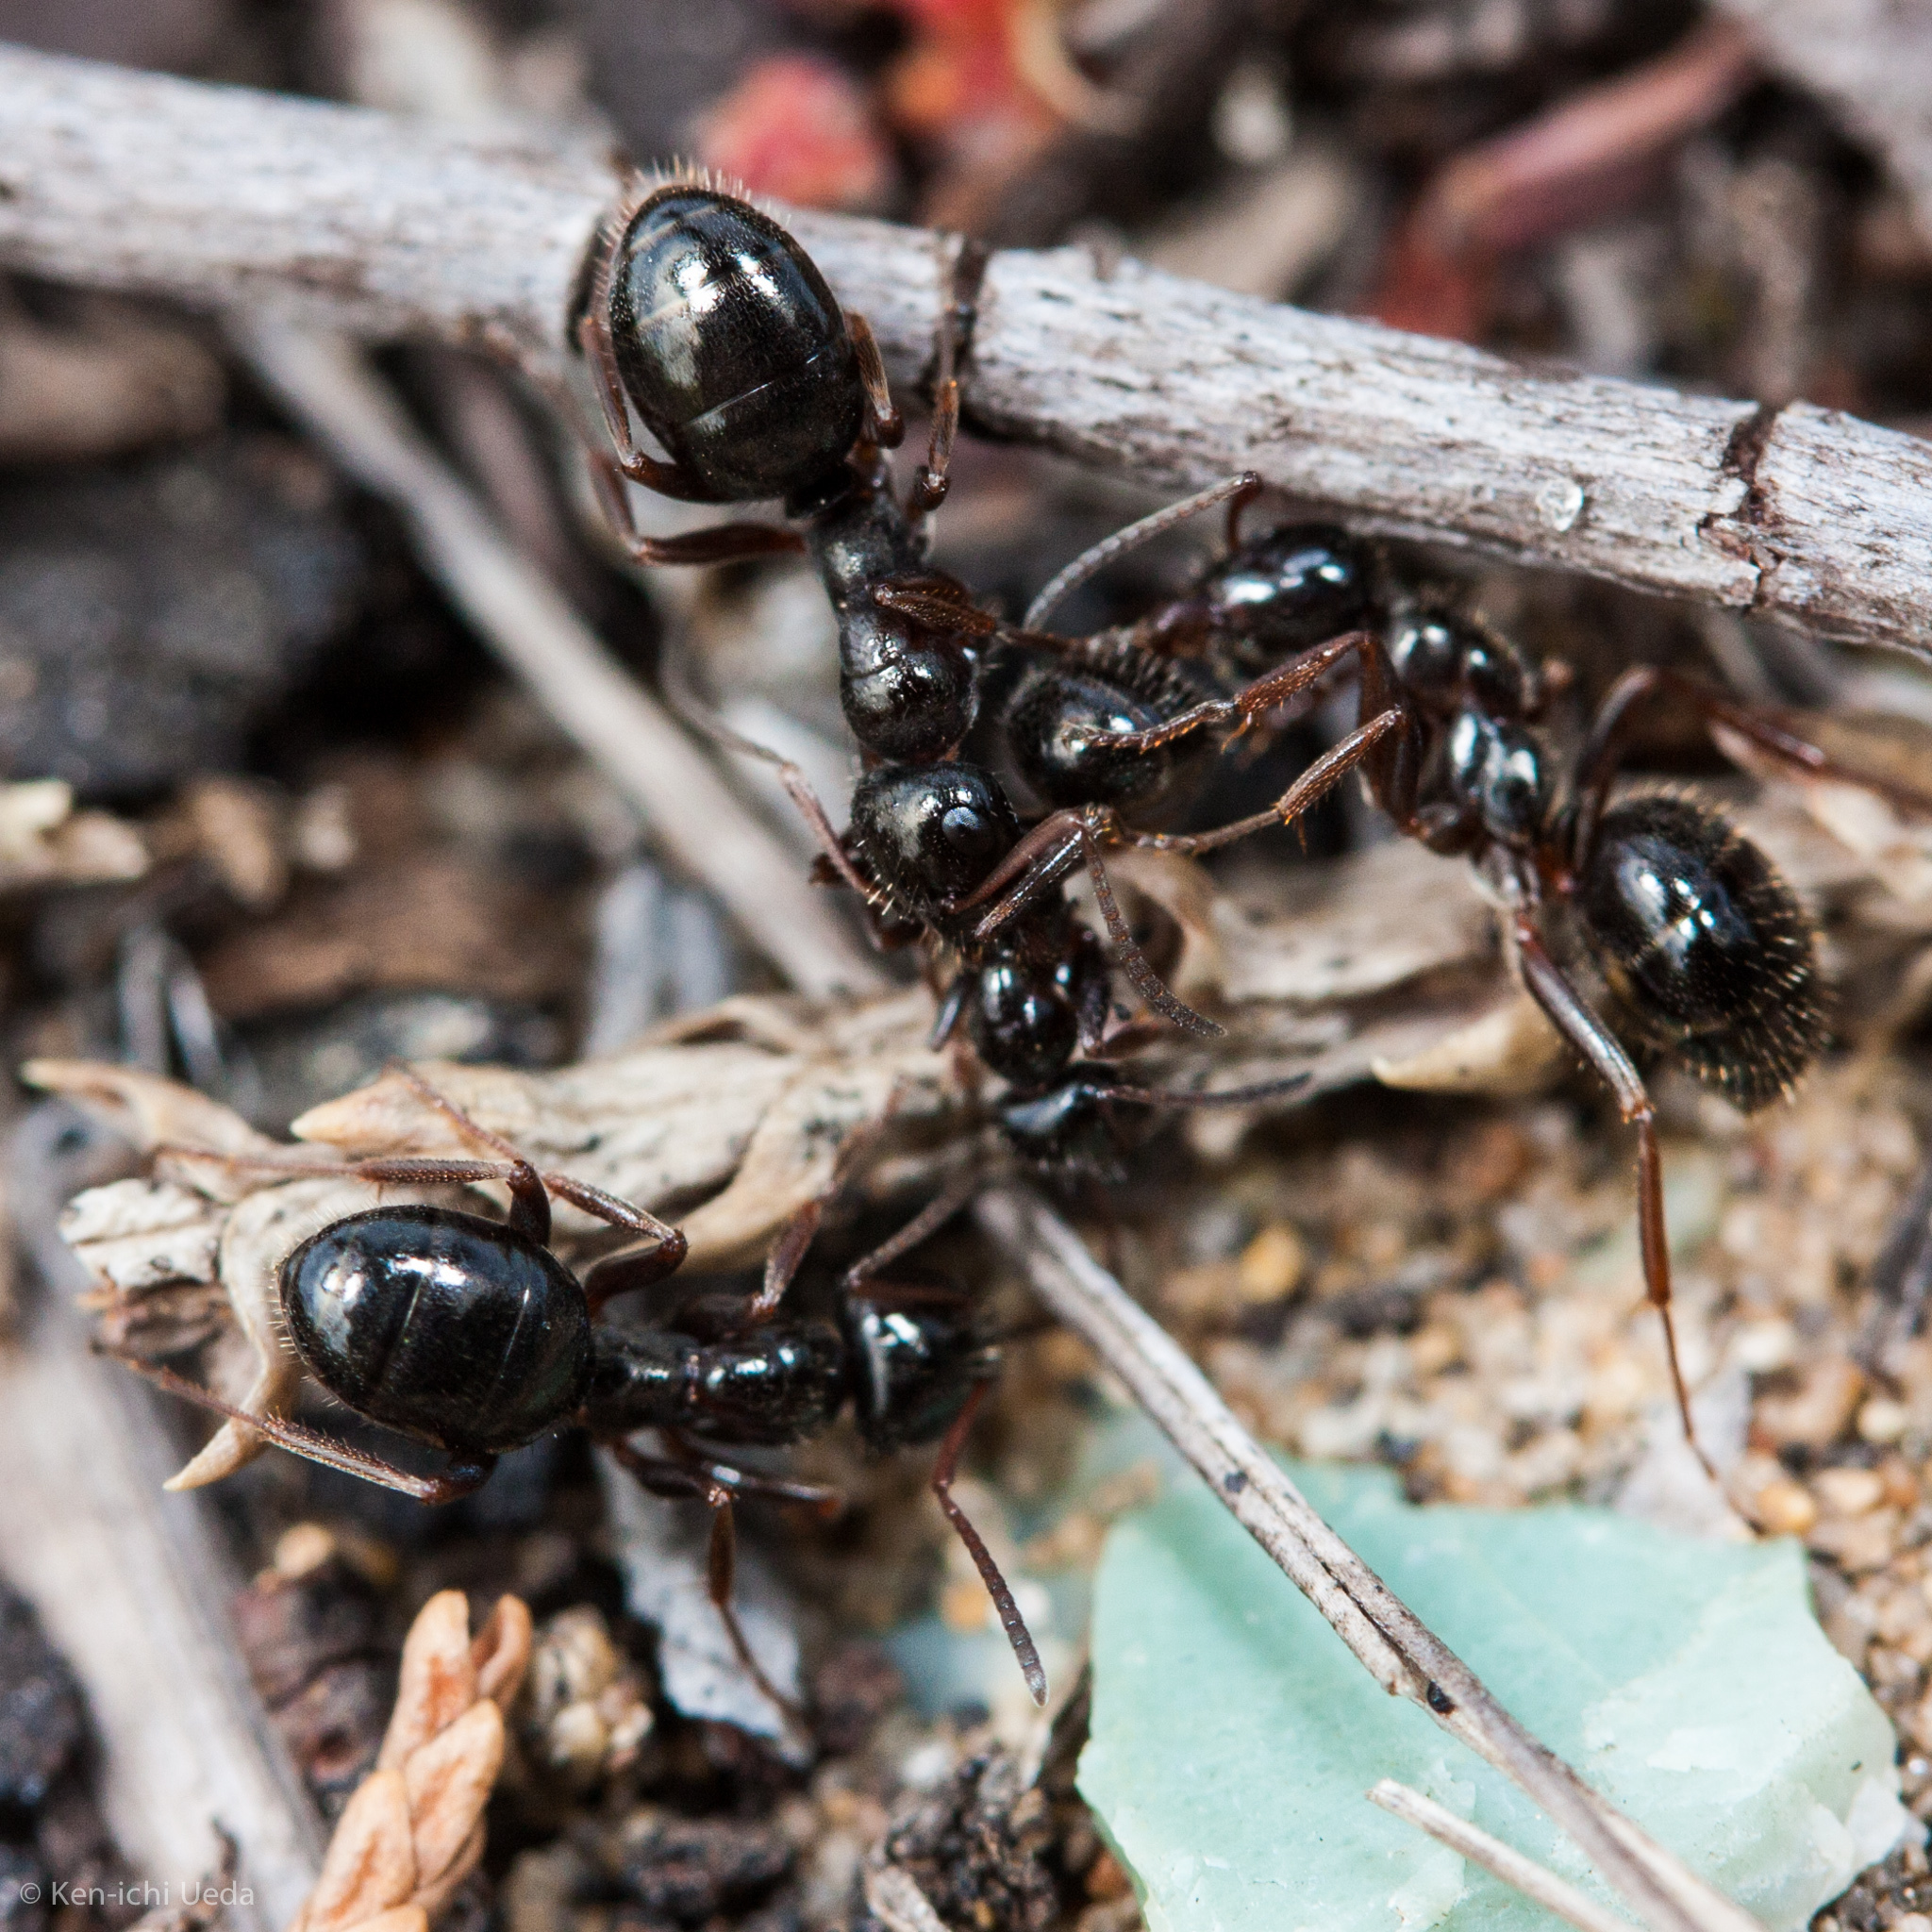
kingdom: Animalia
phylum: Arthropoda
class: Insecta
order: Hymenoptera
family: Formicidae
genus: Formica
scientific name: Formica lasioides
